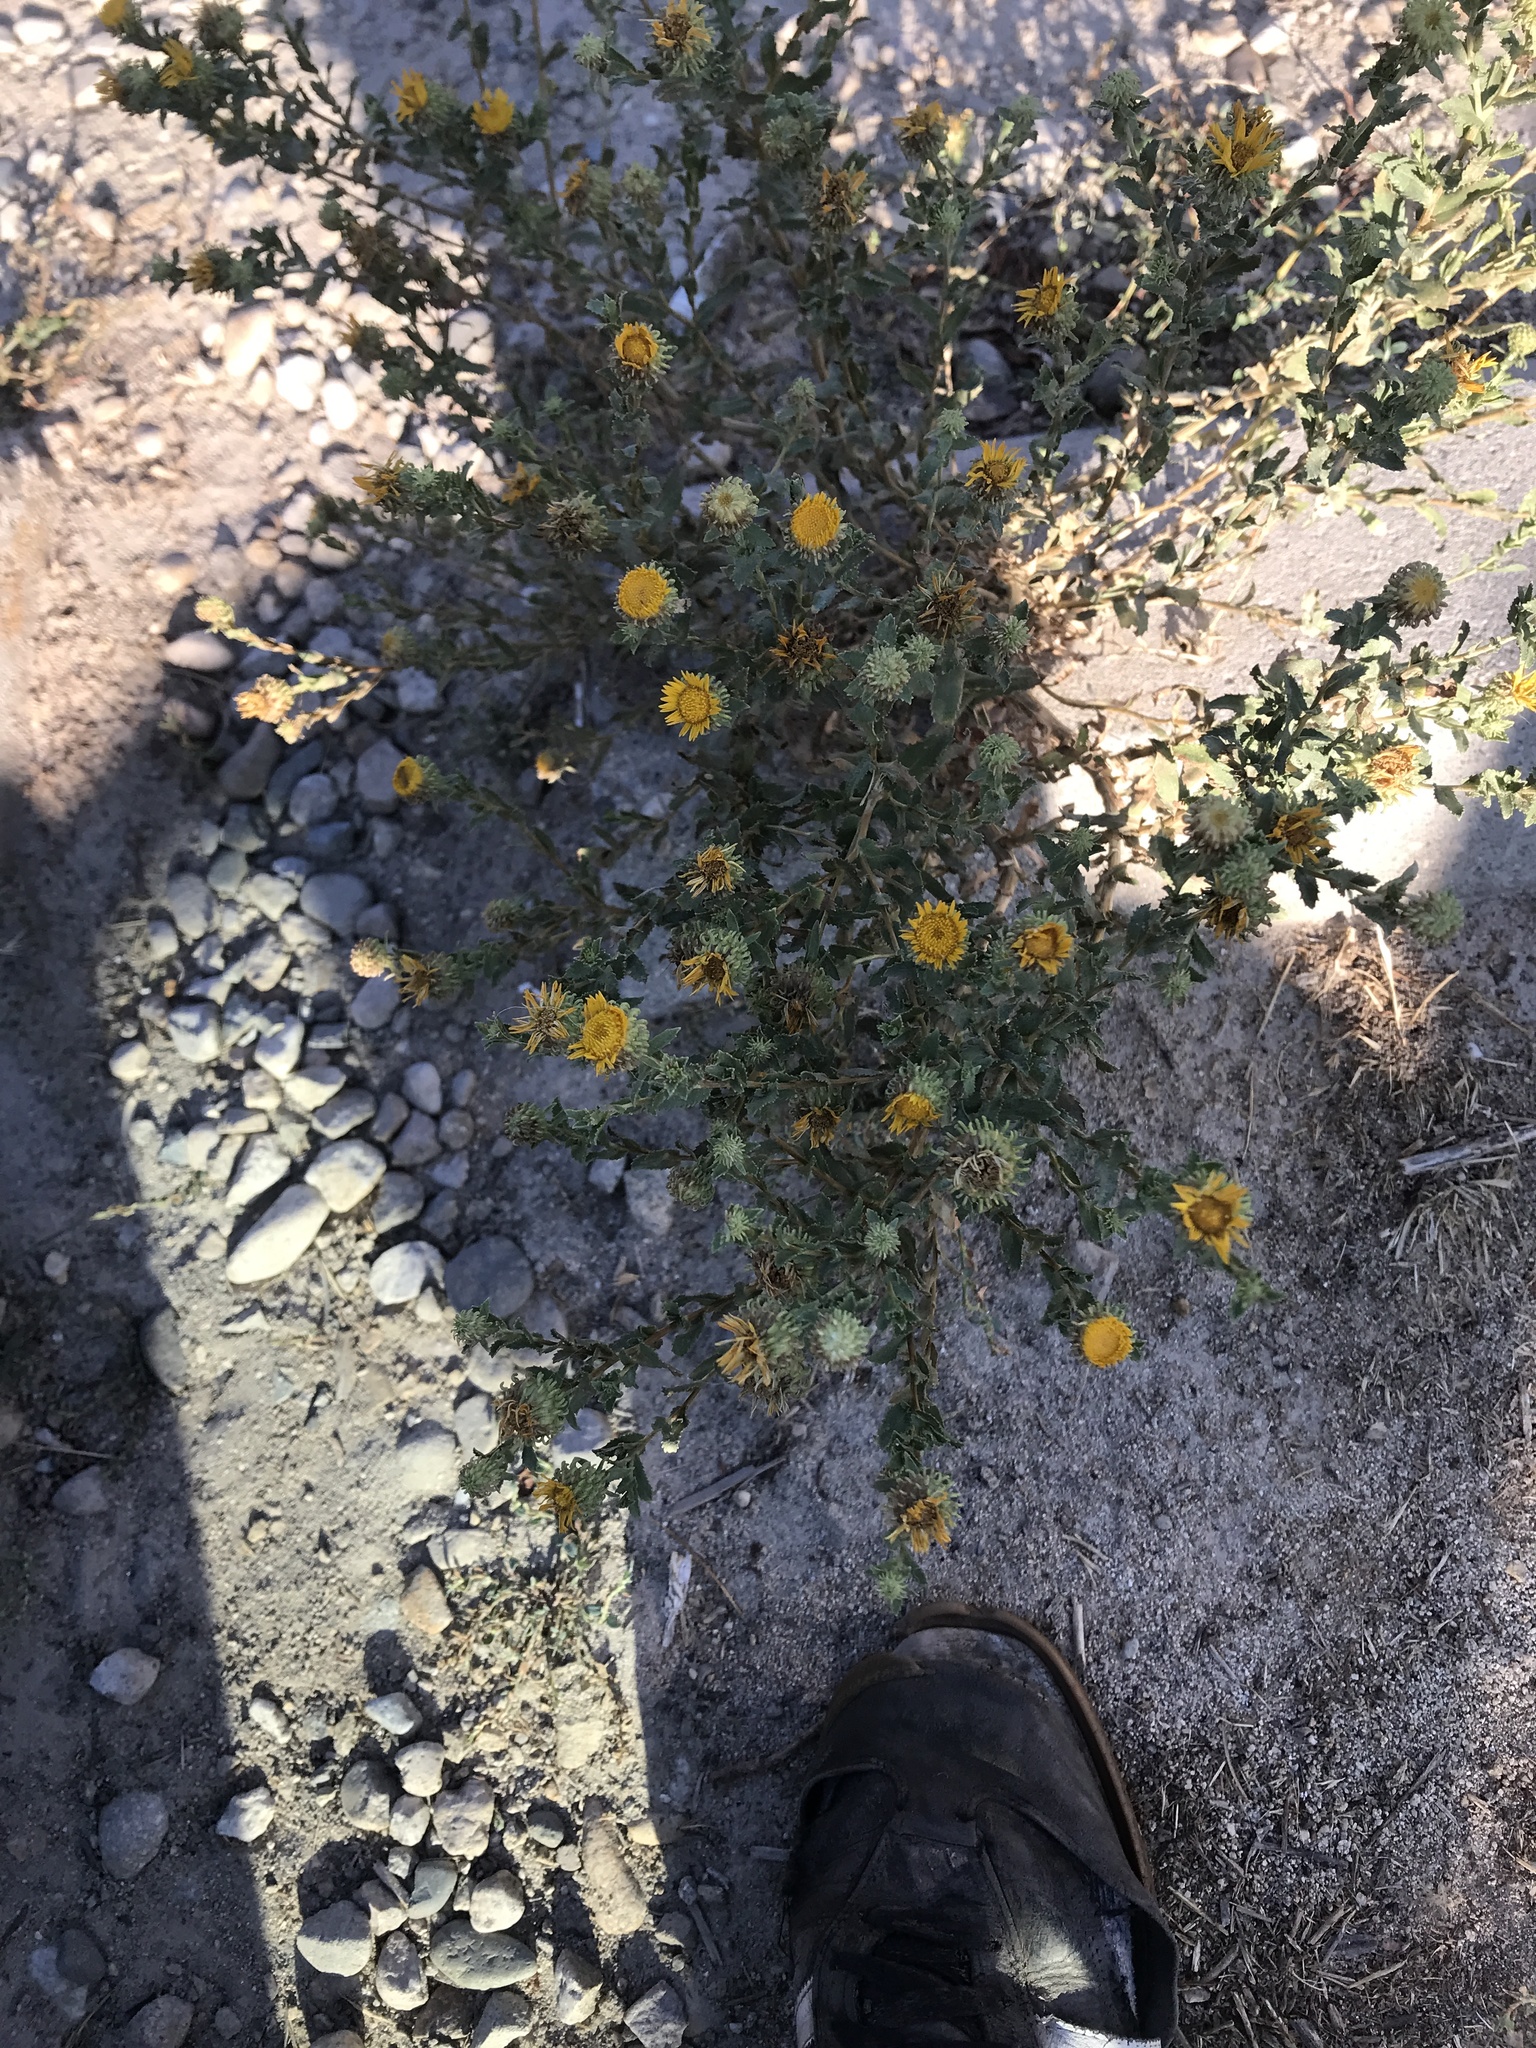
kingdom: Plantae
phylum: Tracheophyta
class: Magnoliopsida
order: Asterales
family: Asteraceae
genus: Grindelia
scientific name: Grindelia squarrosa
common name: Curly-cup gumweed
